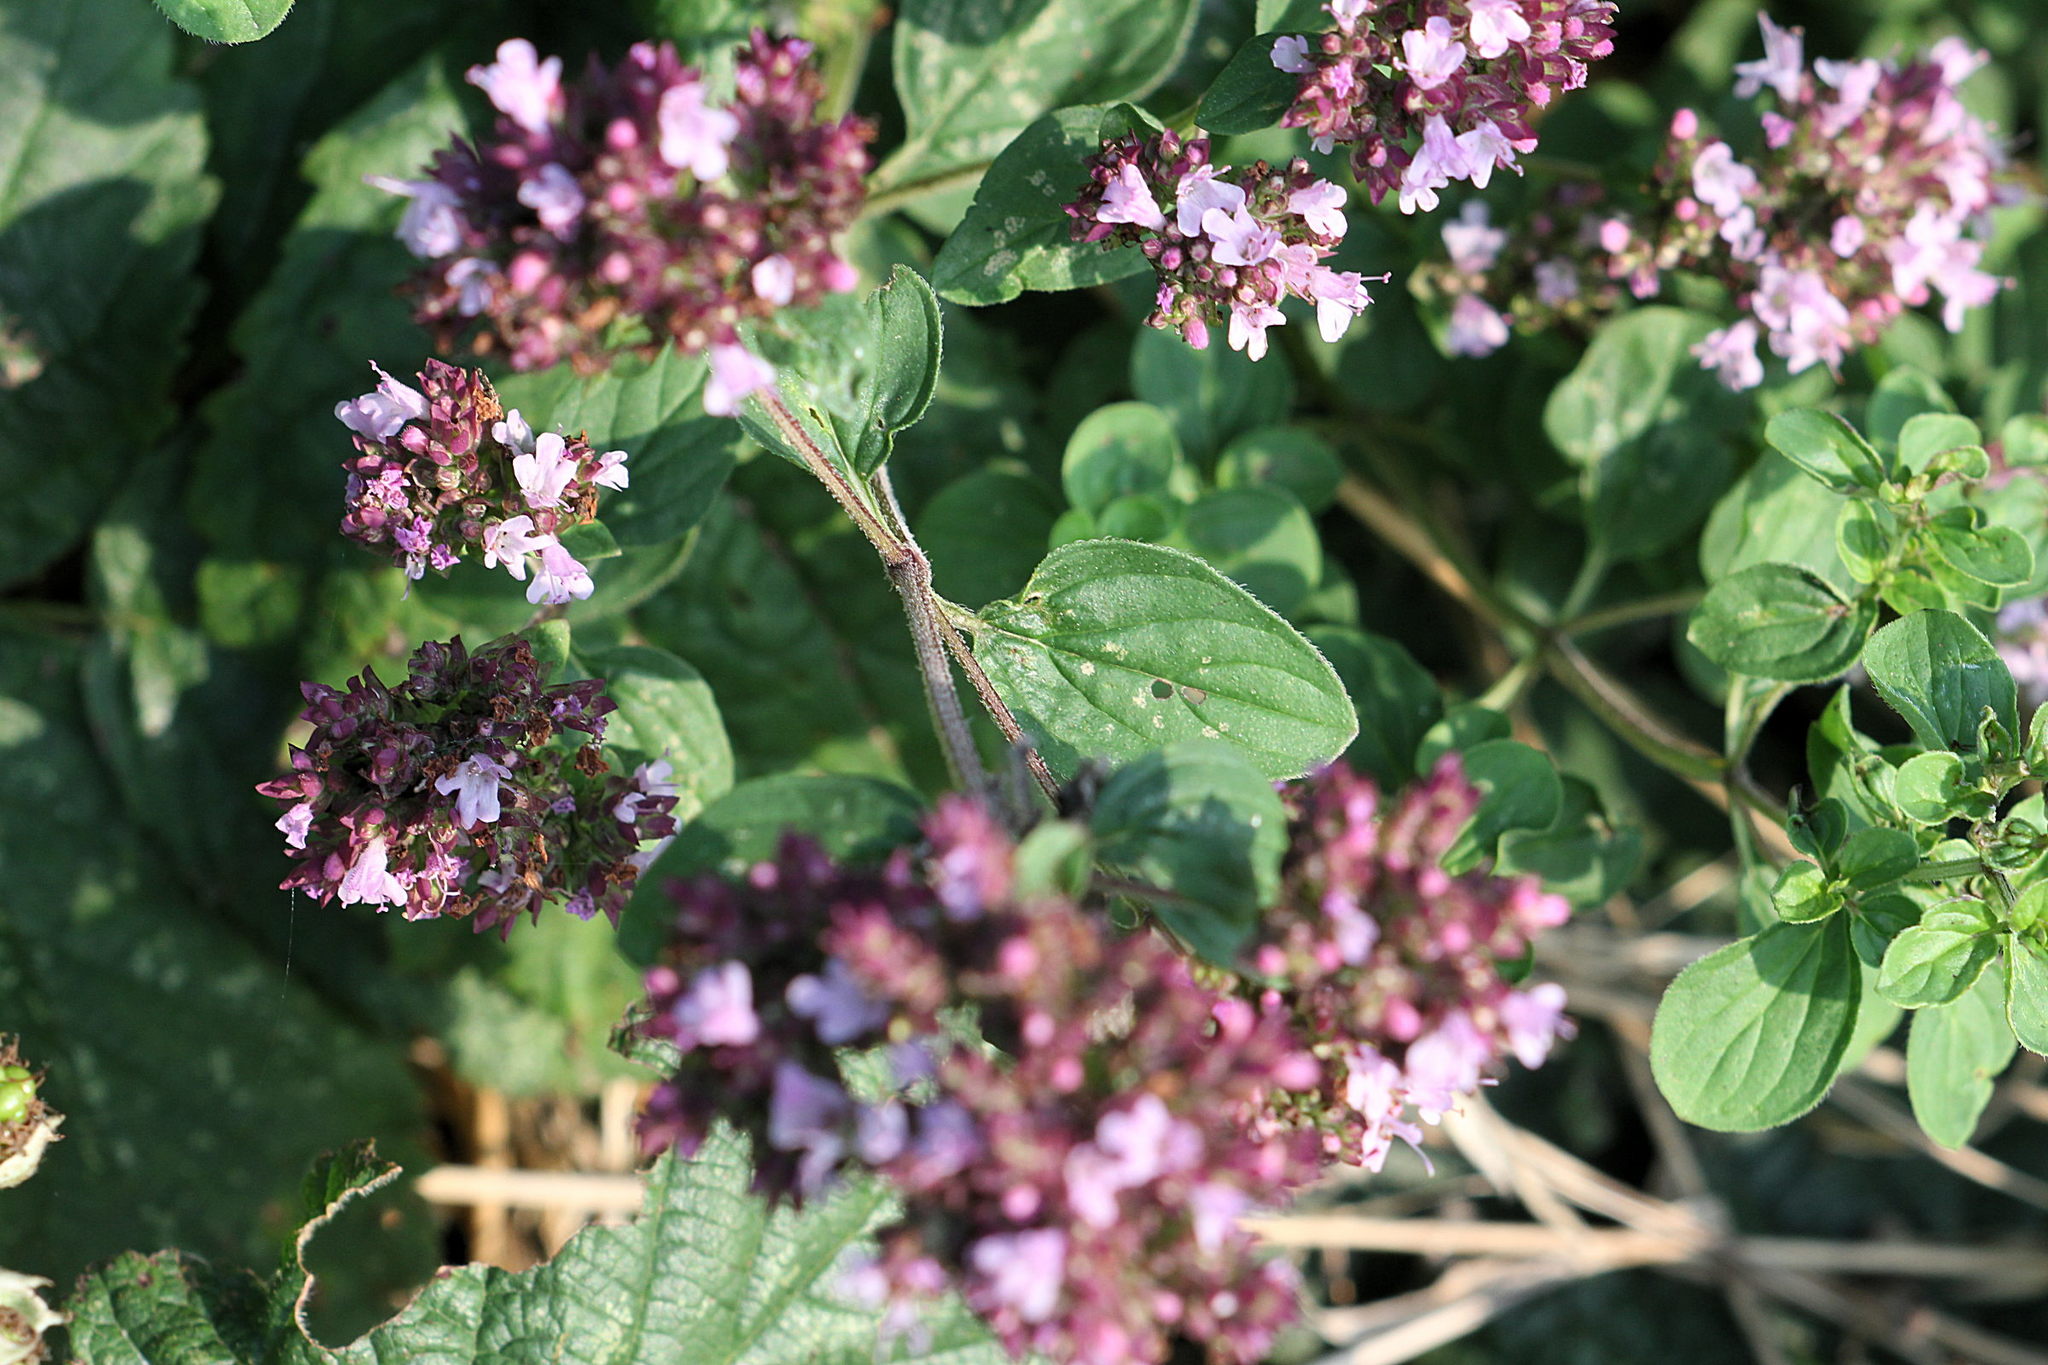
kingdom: Plantae
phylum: Tracheophyta
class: Magnoliopsida
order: Lamiales
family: Lamiaceae
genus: Origanum
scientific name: Origanum vulgare
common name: Wild marjoram
